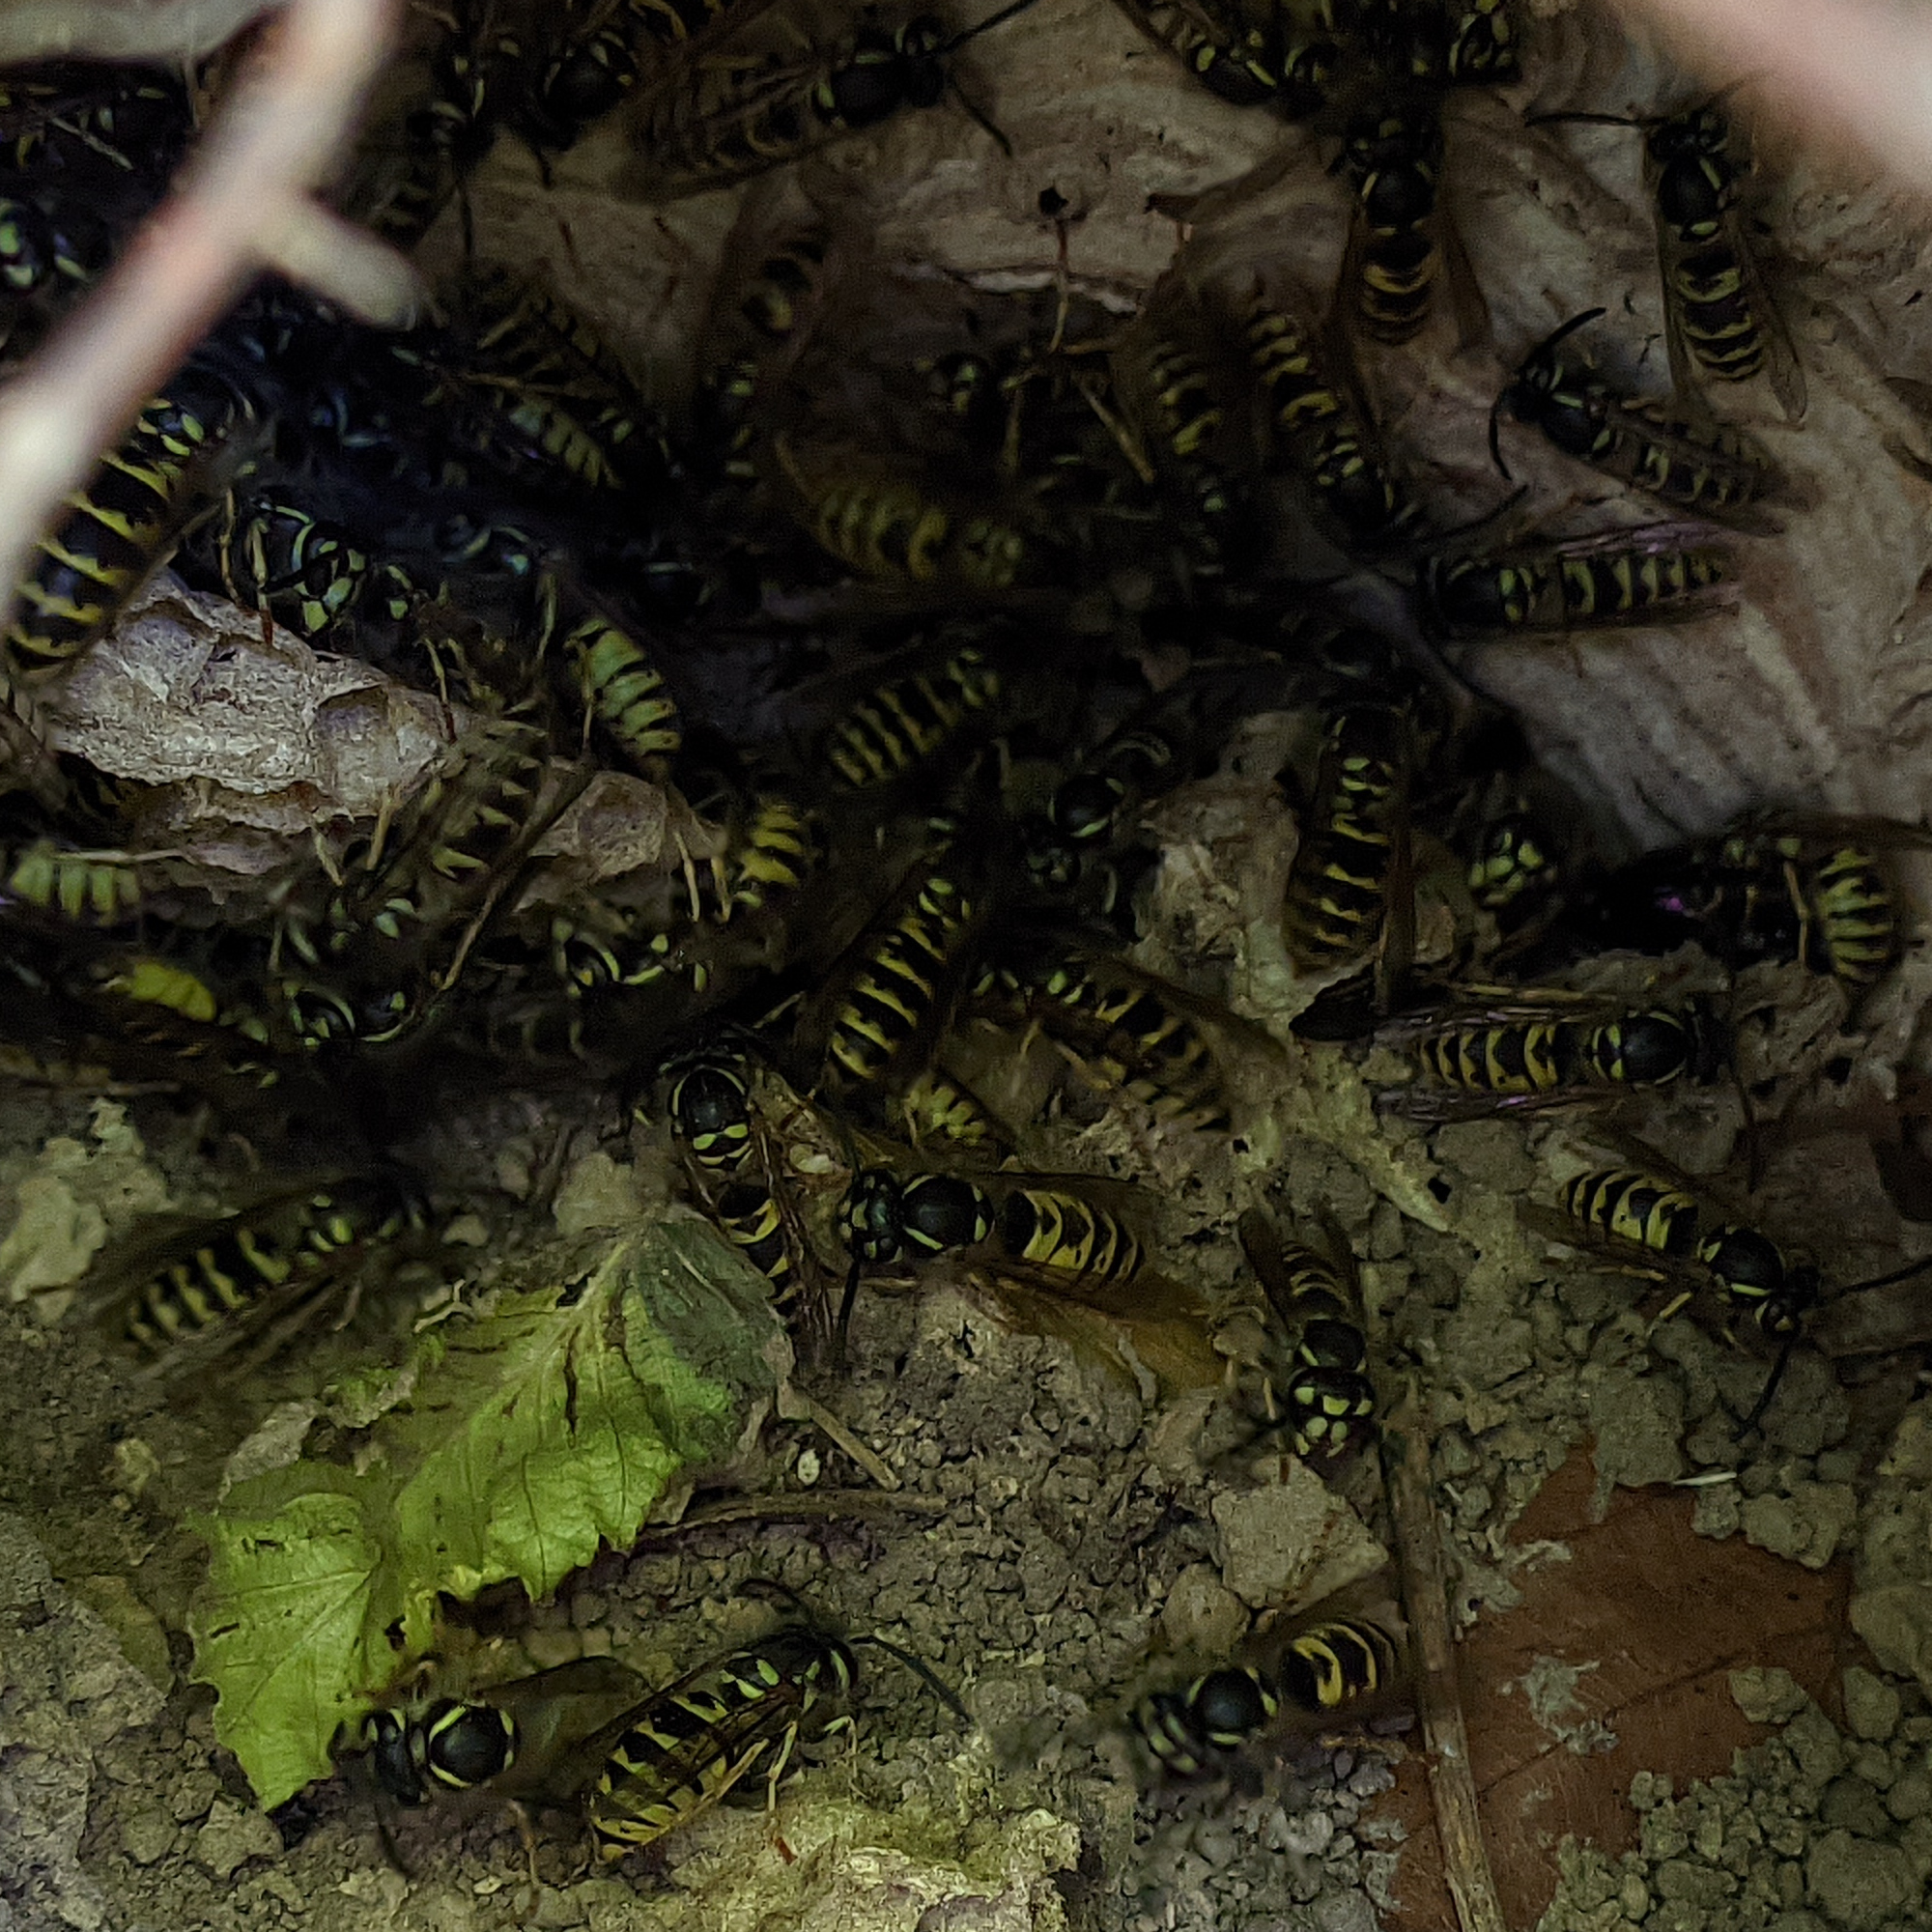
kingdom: Animalia
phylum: Arthropoda
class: Insecta
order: Hymenoptera
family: Vespidae
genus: Vespula
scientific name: Vespula vulgaris
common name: Common wasp
